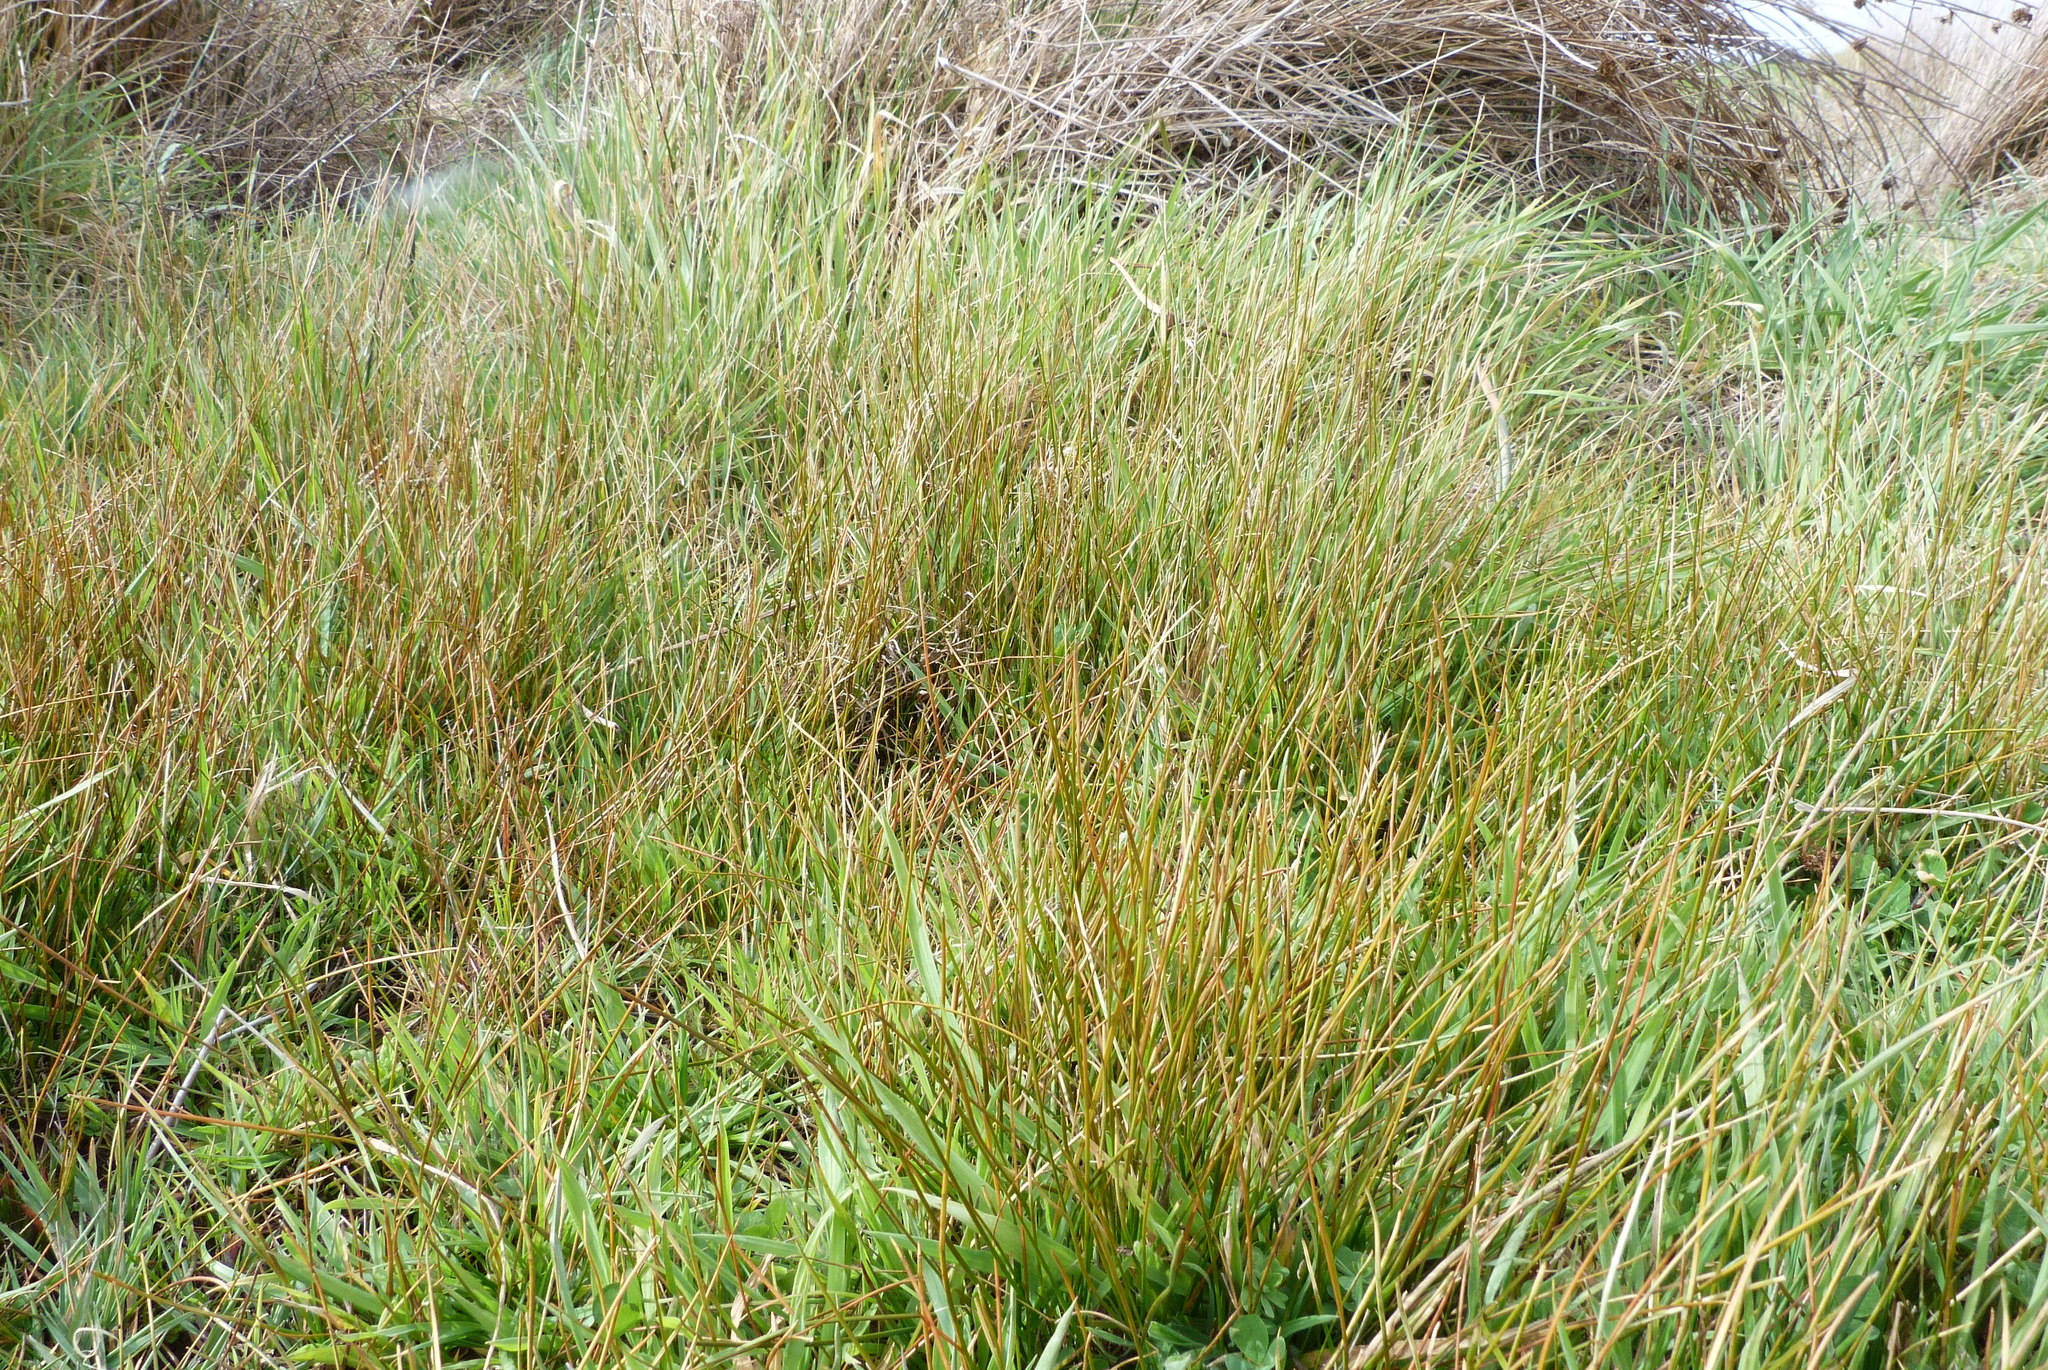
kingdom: Plantae
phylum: Tracheophyta
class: Liliopsida
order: Poales
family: Cyperaceae
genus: Eleocharis
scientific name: Eleocharis acuta
